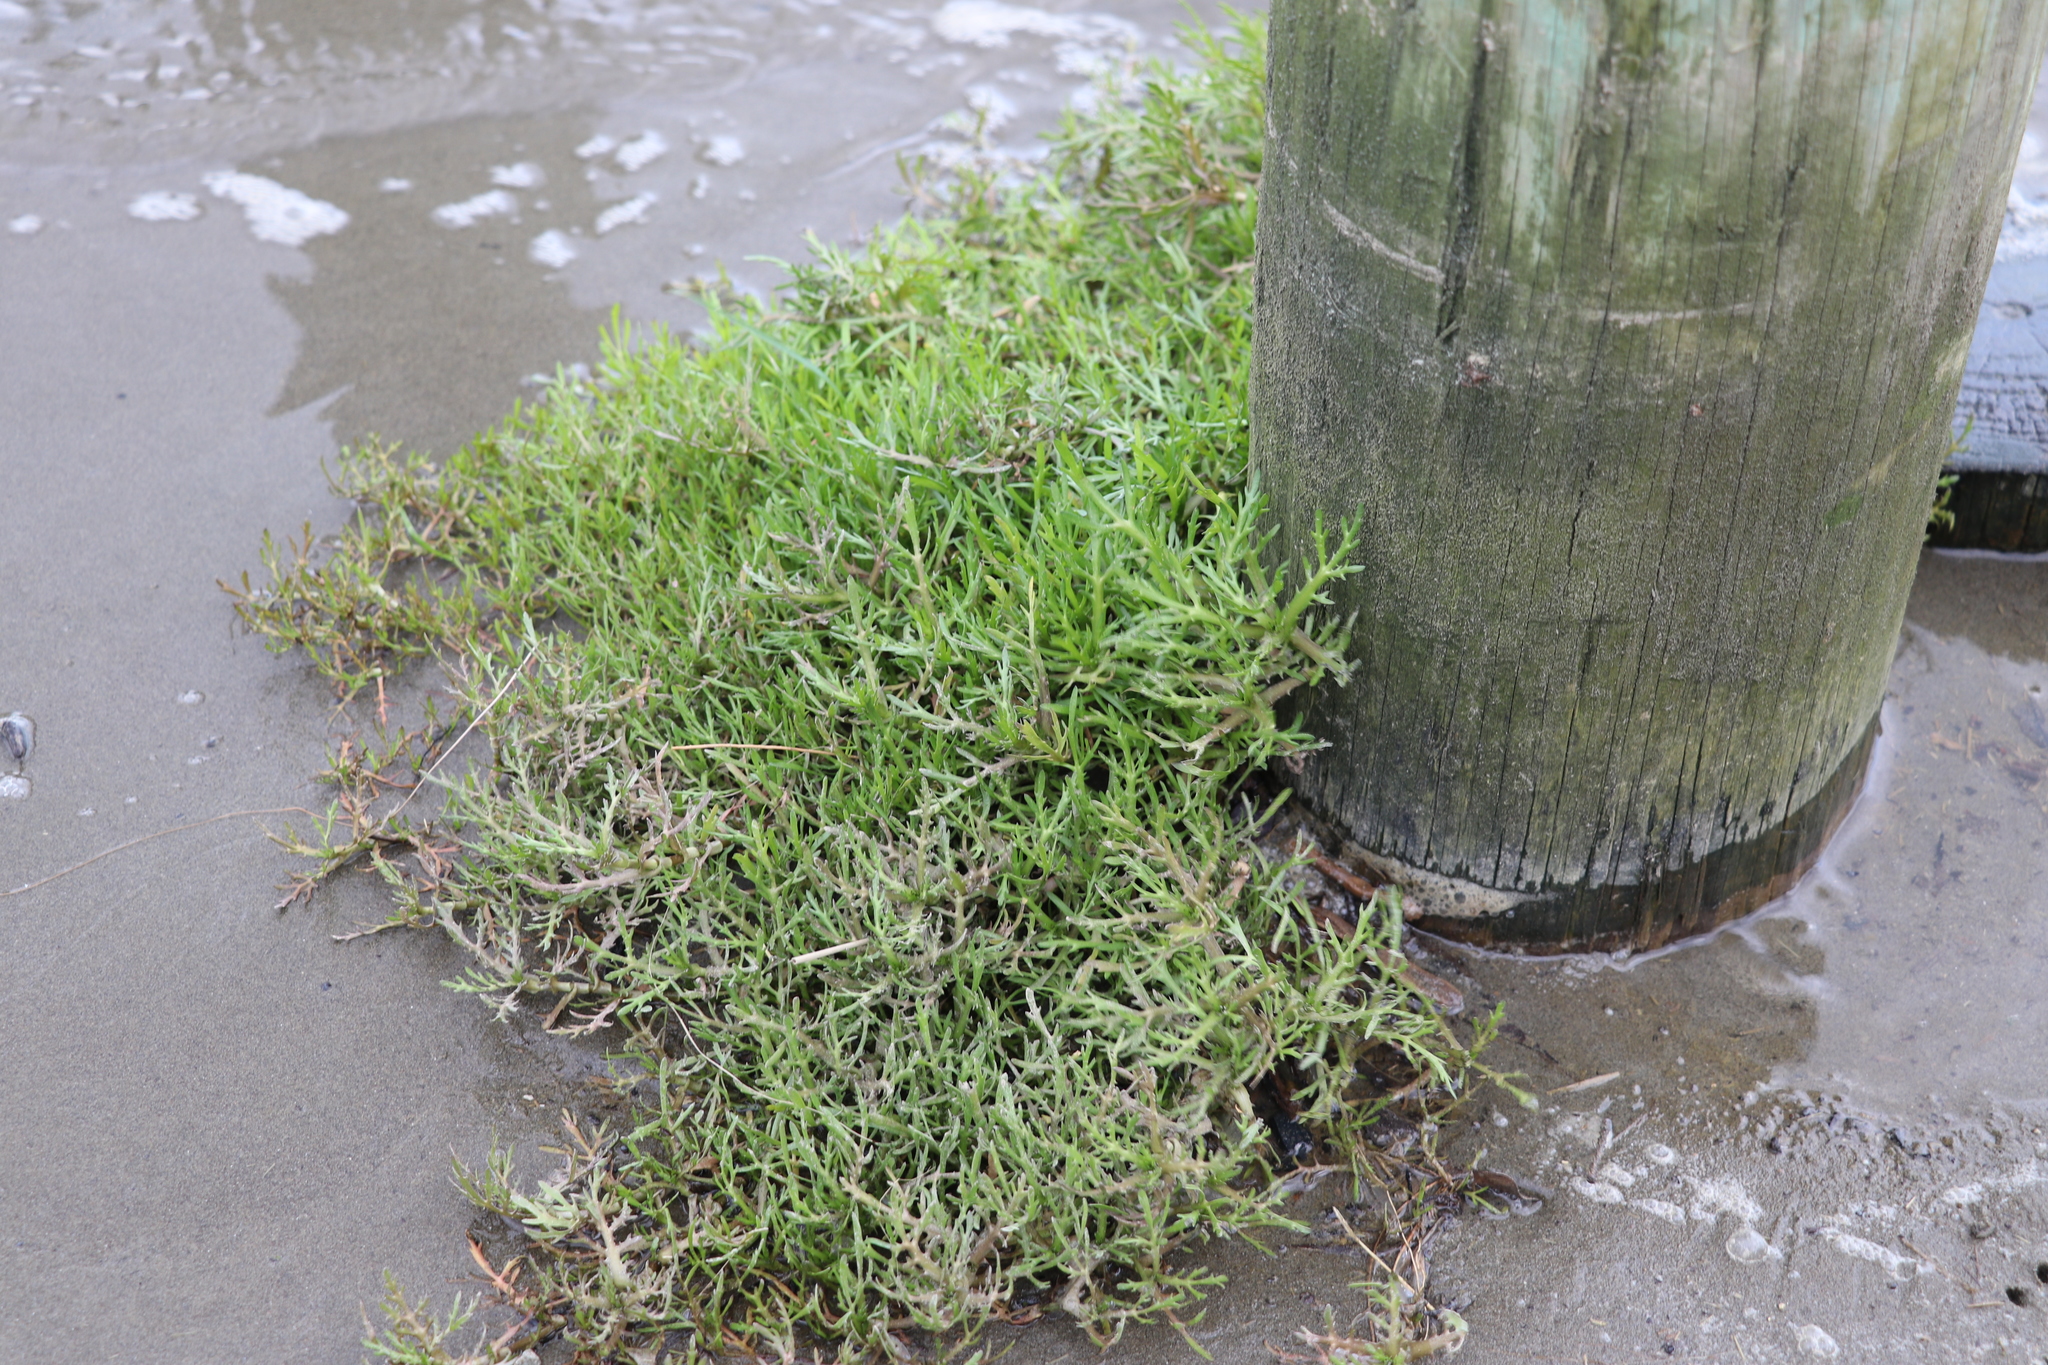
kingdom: Plantae
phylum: Tracheophyta
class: Magnoliopsida
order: Asterales
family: Asteraceae
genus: Cotula
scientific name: Cotula coronopifolia
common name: Buttonweed
